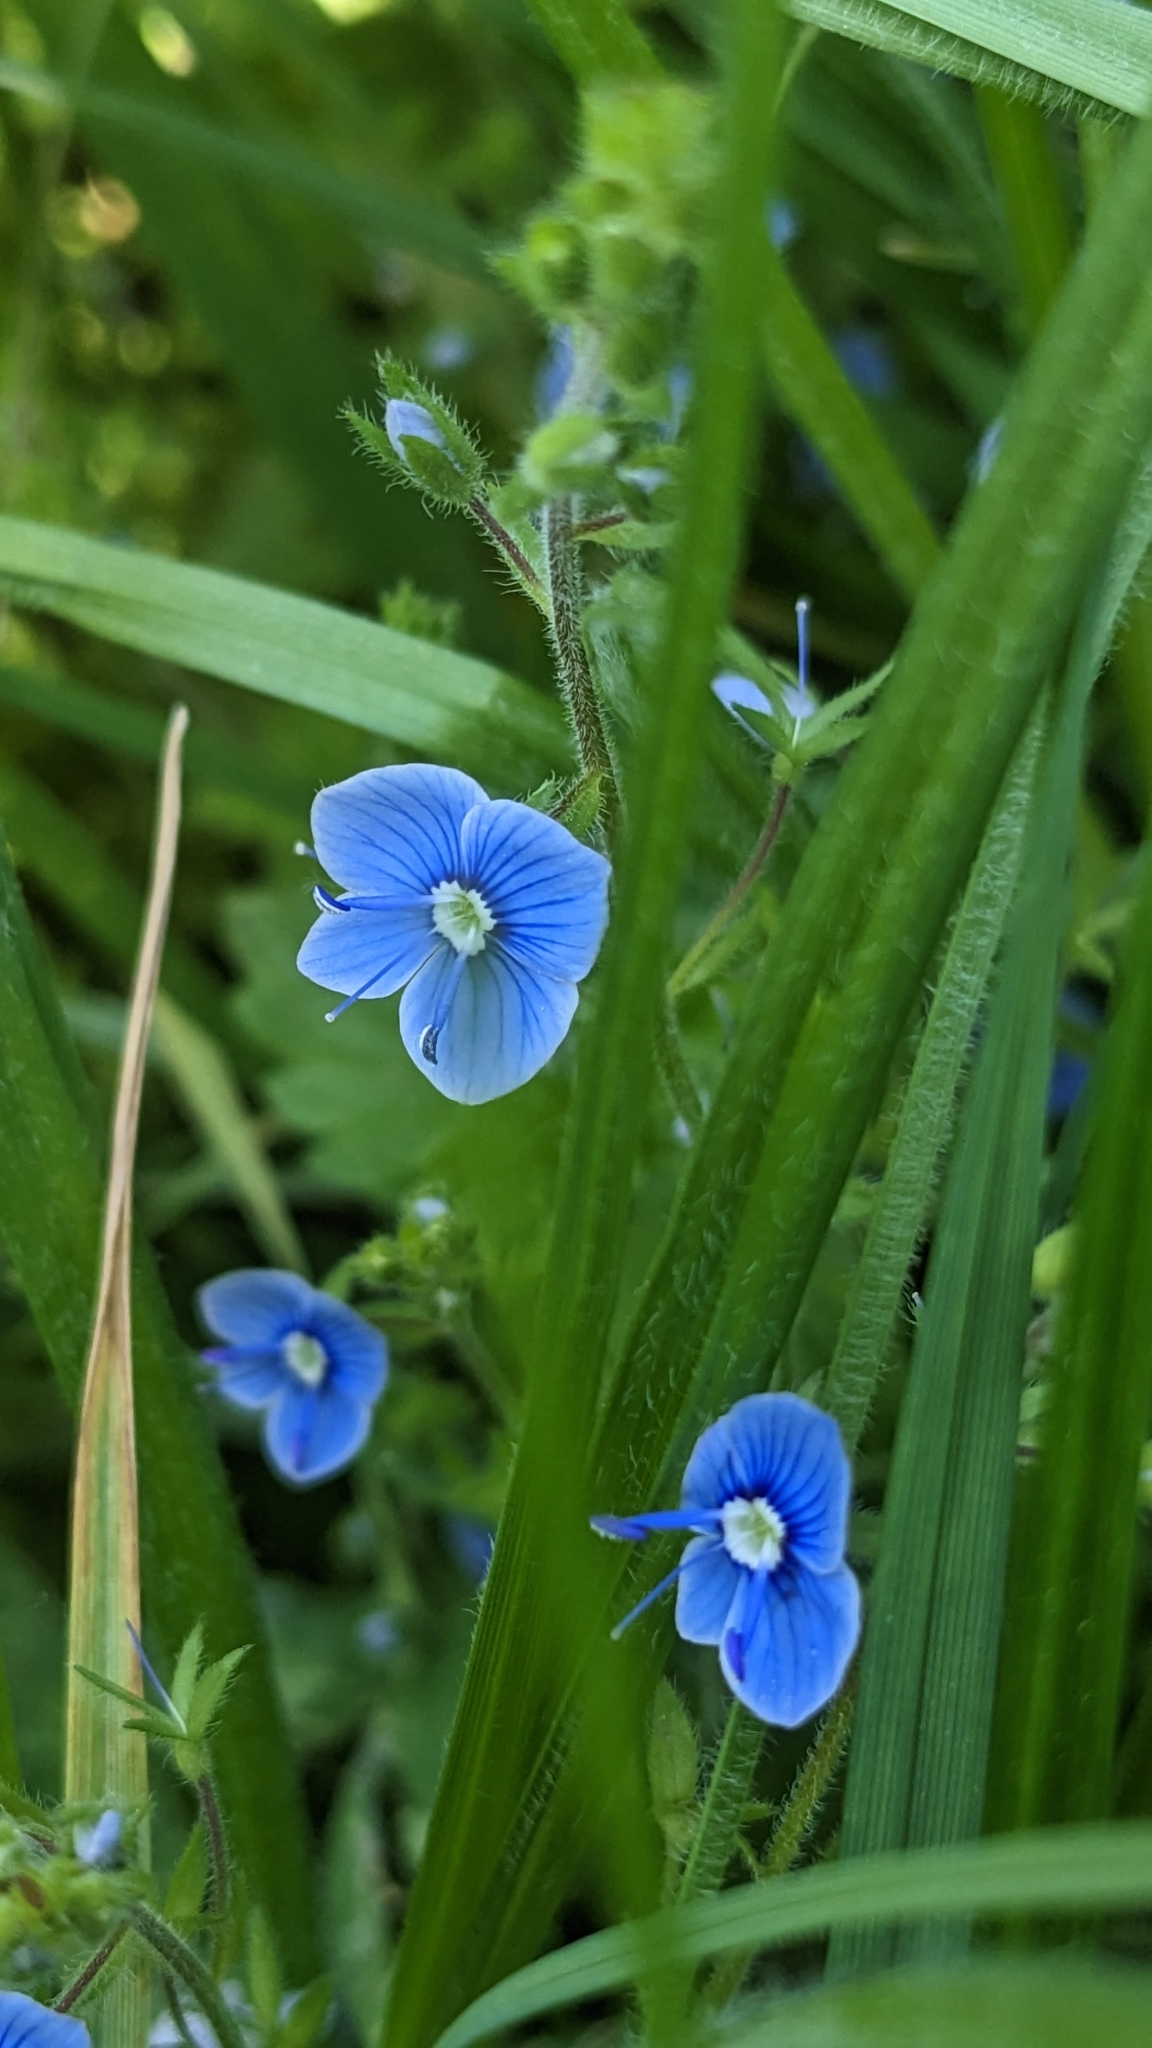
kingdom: Plantae
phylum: Tracheophyta
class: Magnoliopsida
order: Lamiales
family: Plantaginaceae
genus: Veronica
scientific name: Veronica chamaedrys
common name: Germander speedwell
